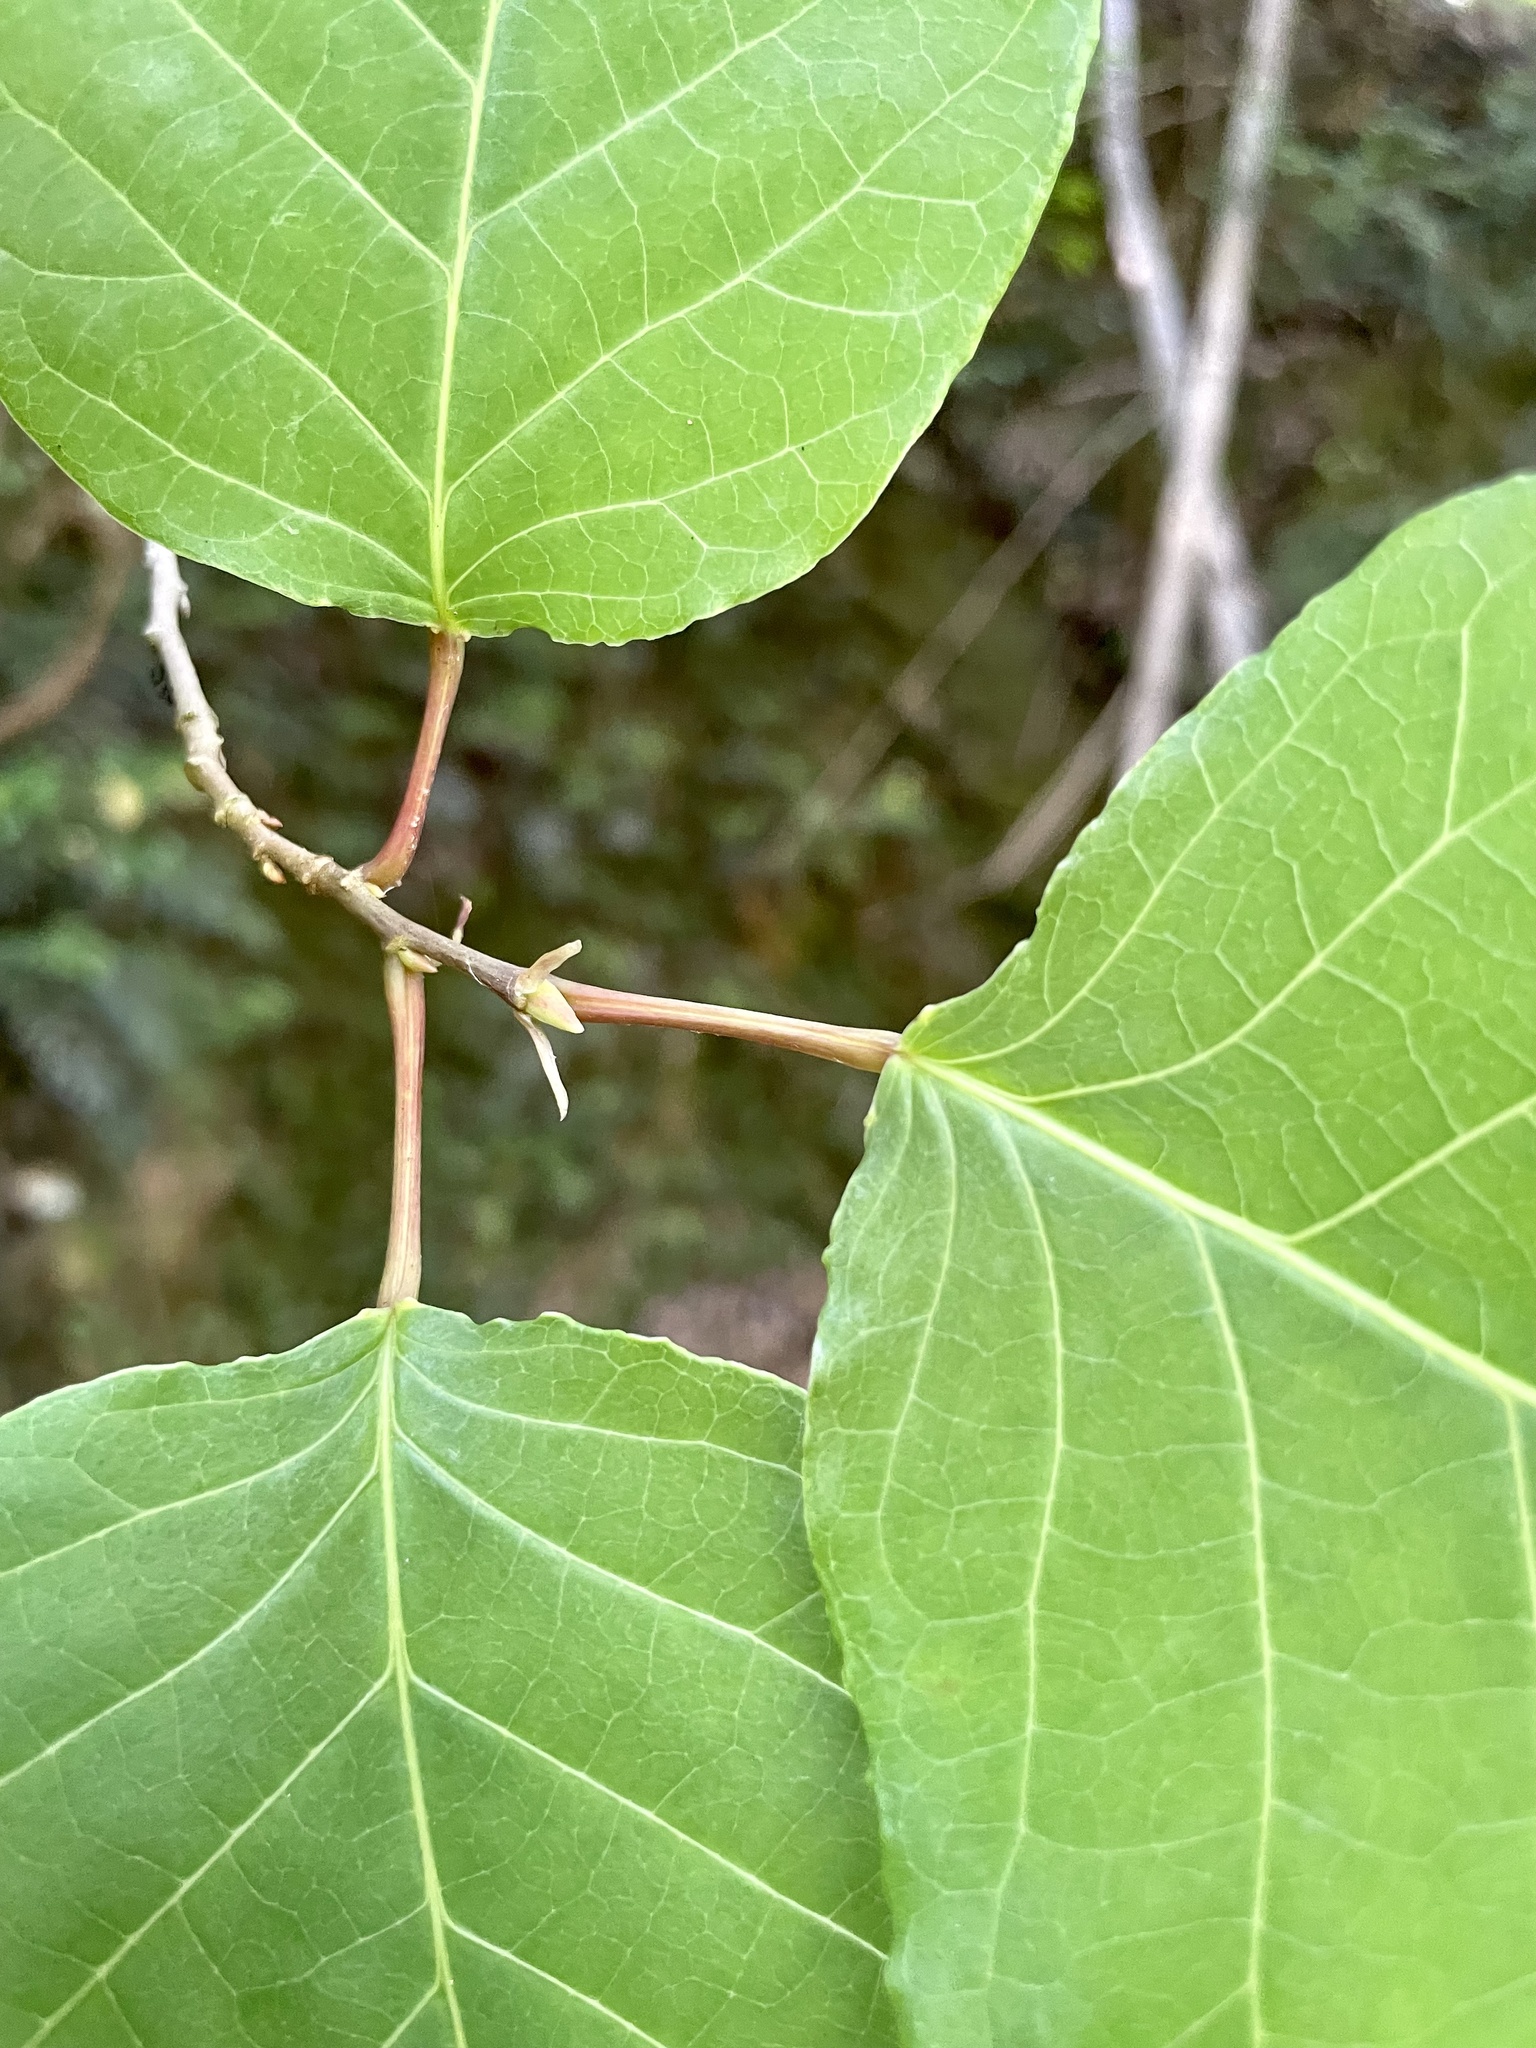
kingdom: Plantae
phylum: Tracheophyta
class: Magnoliopsida
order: Malpighiales
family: Euphorbiaceae
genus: Neoshirakia
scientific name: Neoshirakia japonica
